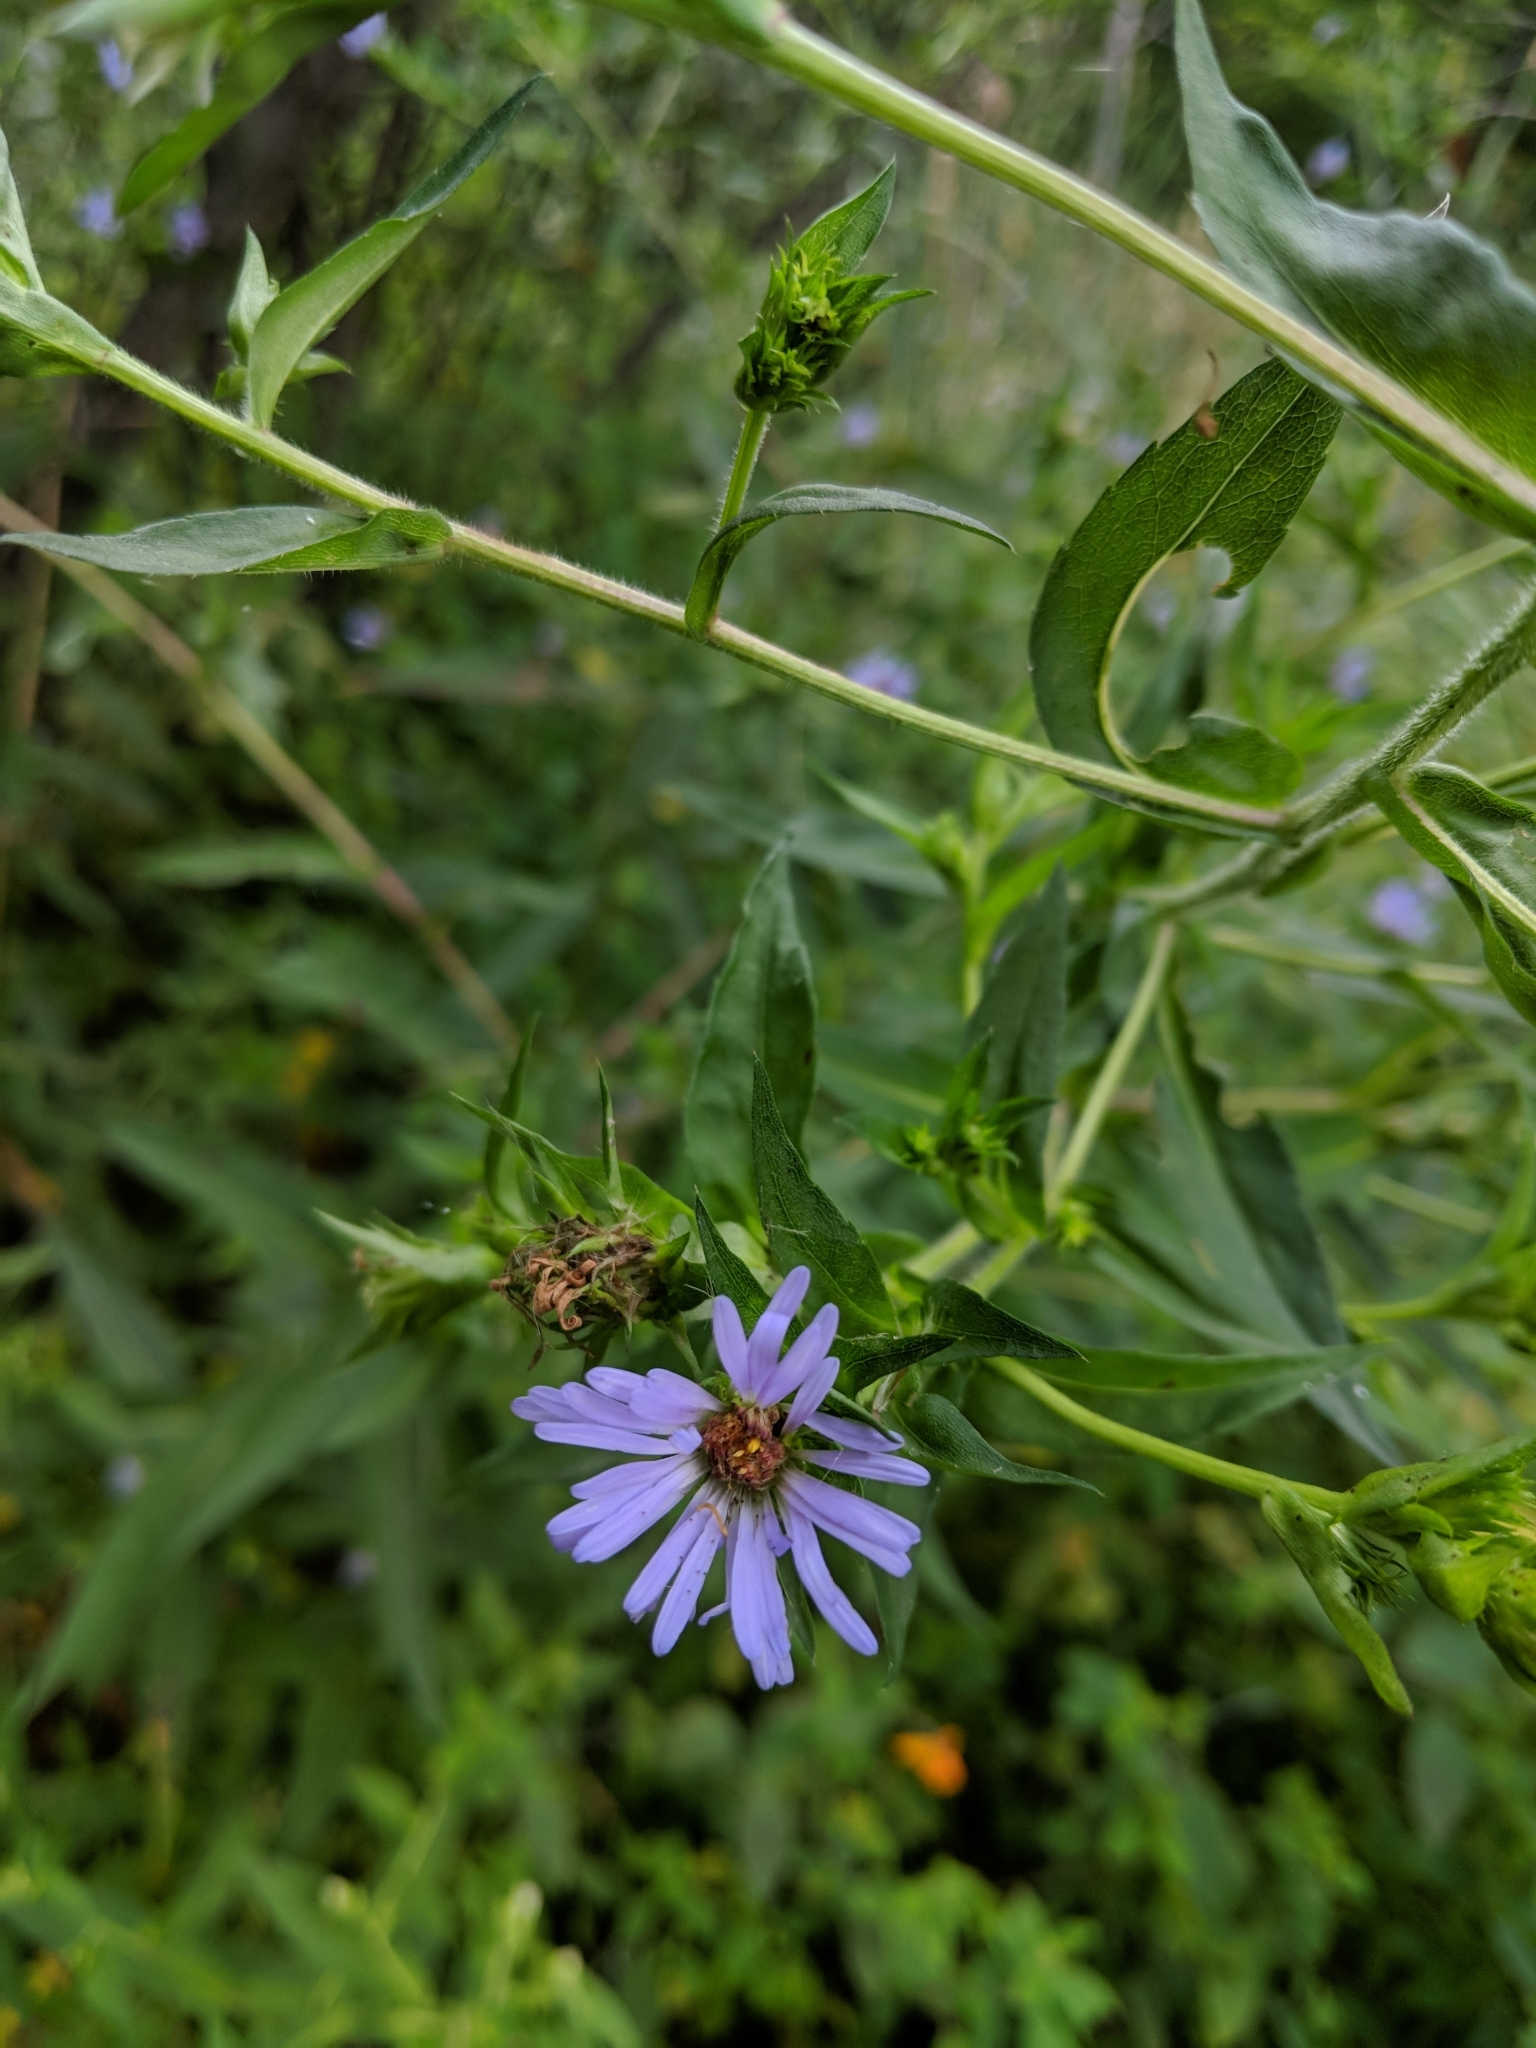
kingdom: Plantae
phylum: Tracheophyta
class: Magnoliopsida
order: Asterales
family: Asteraceae
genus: Symphyotrichum
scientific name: Symphyotrichum puniceum
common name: Bog aster
